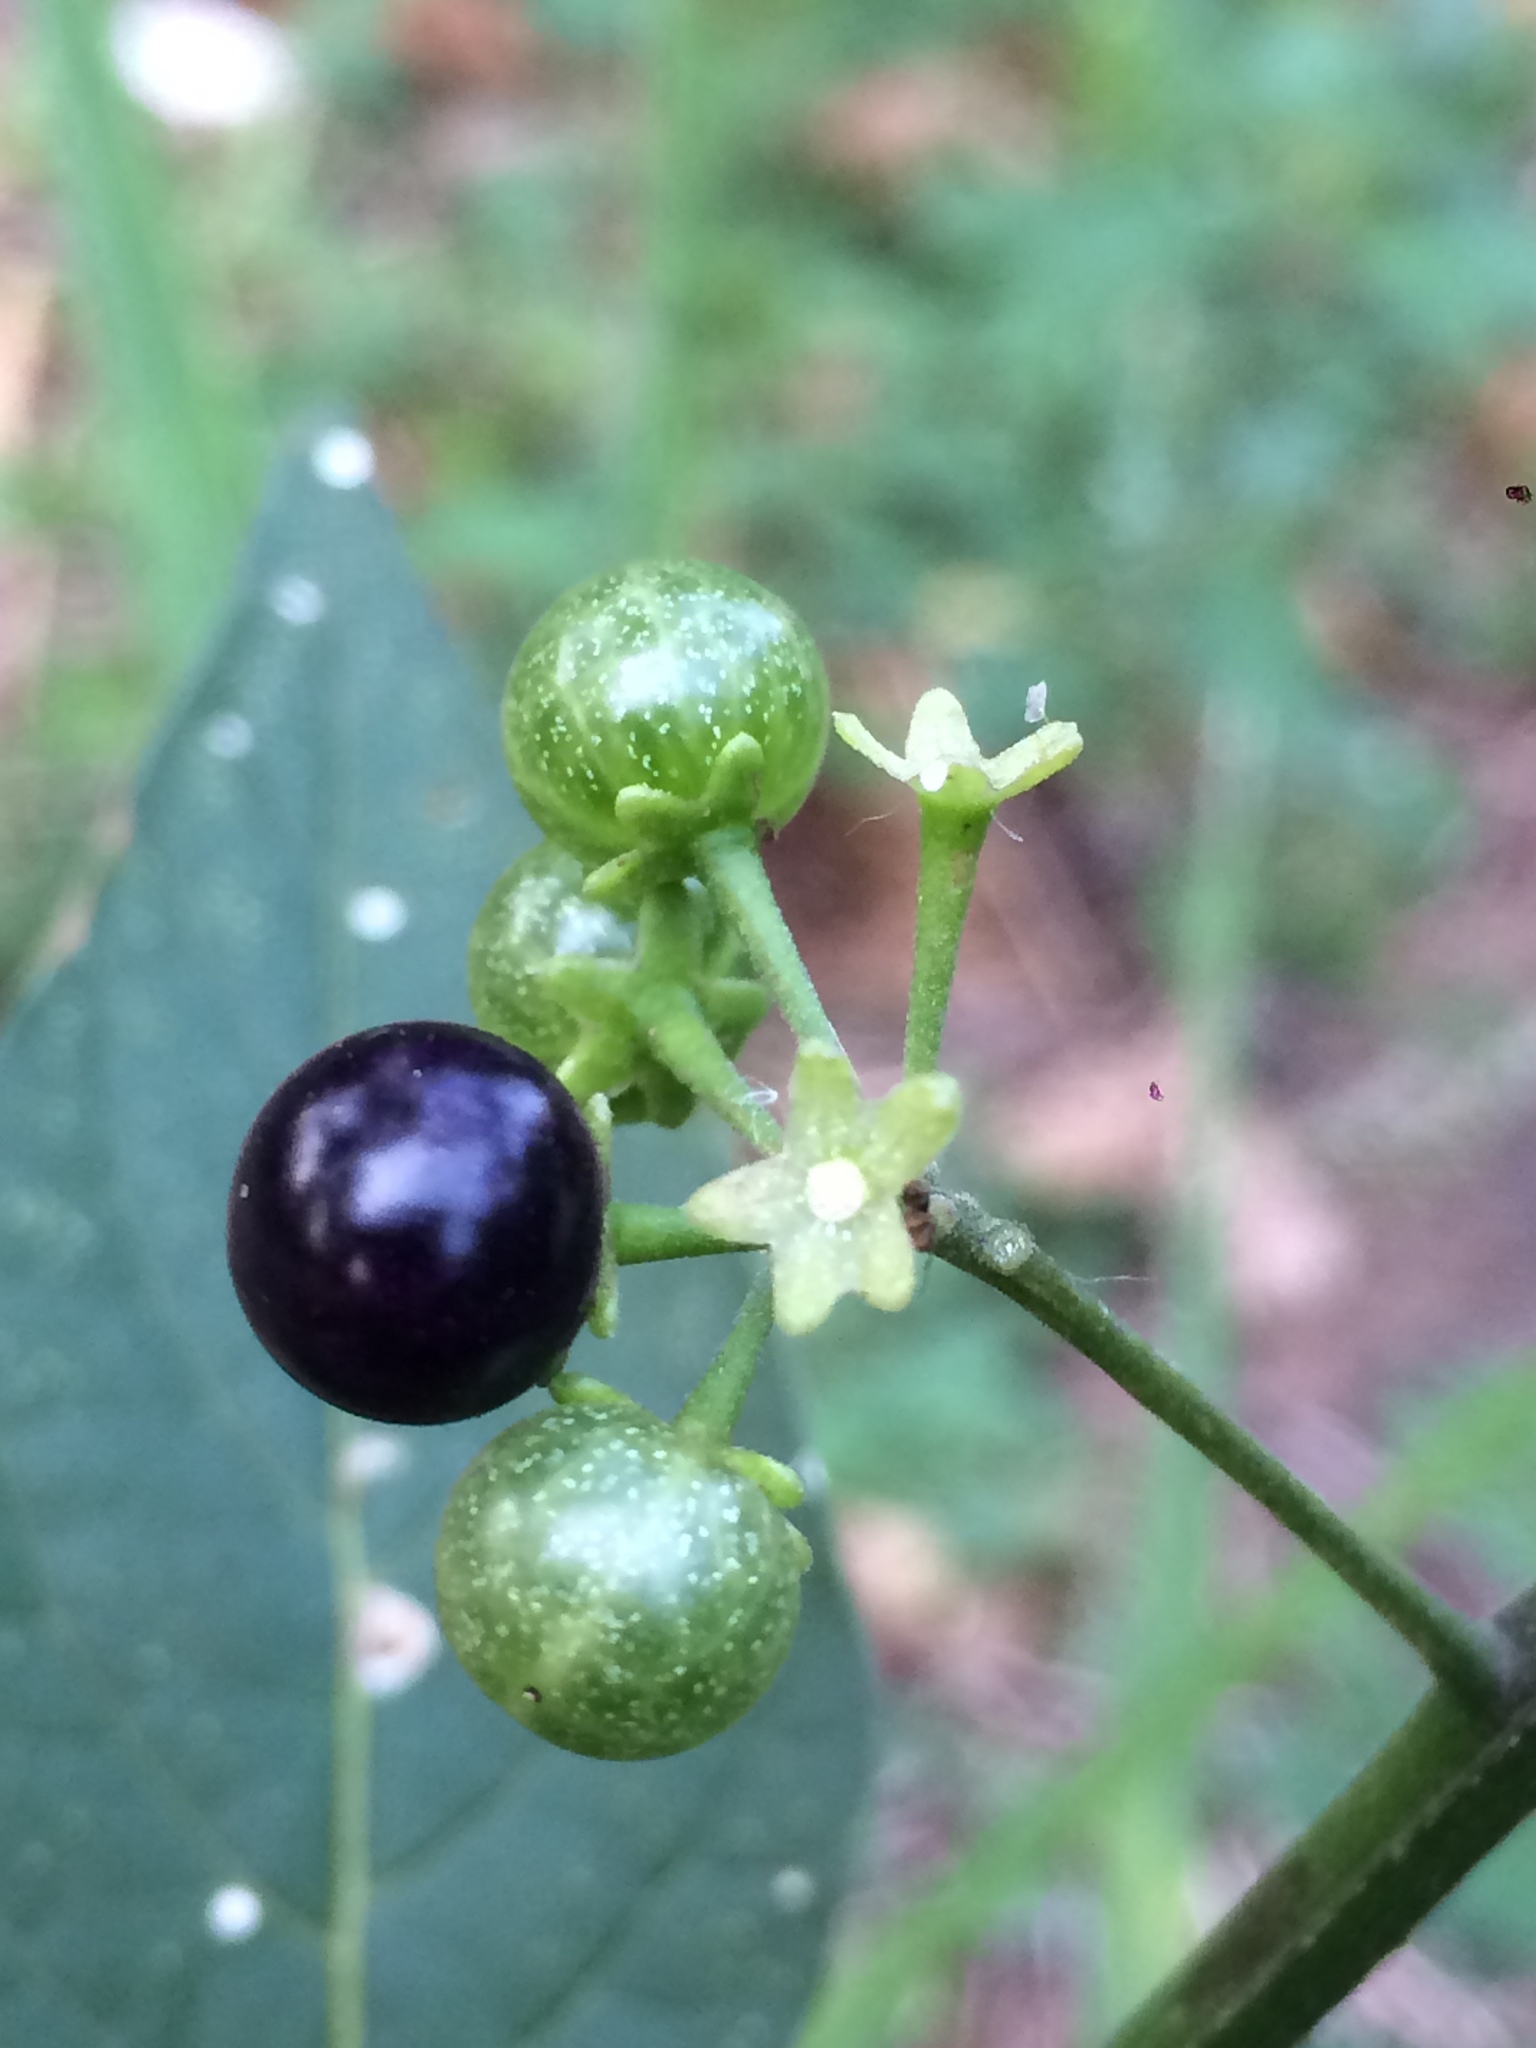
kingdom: Plantae
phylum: Tracheophyta
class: Magnoliopsida
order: Solanales
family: Solanaceae
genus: Solanum
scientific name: Solanum americanum
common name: American black nightshade
